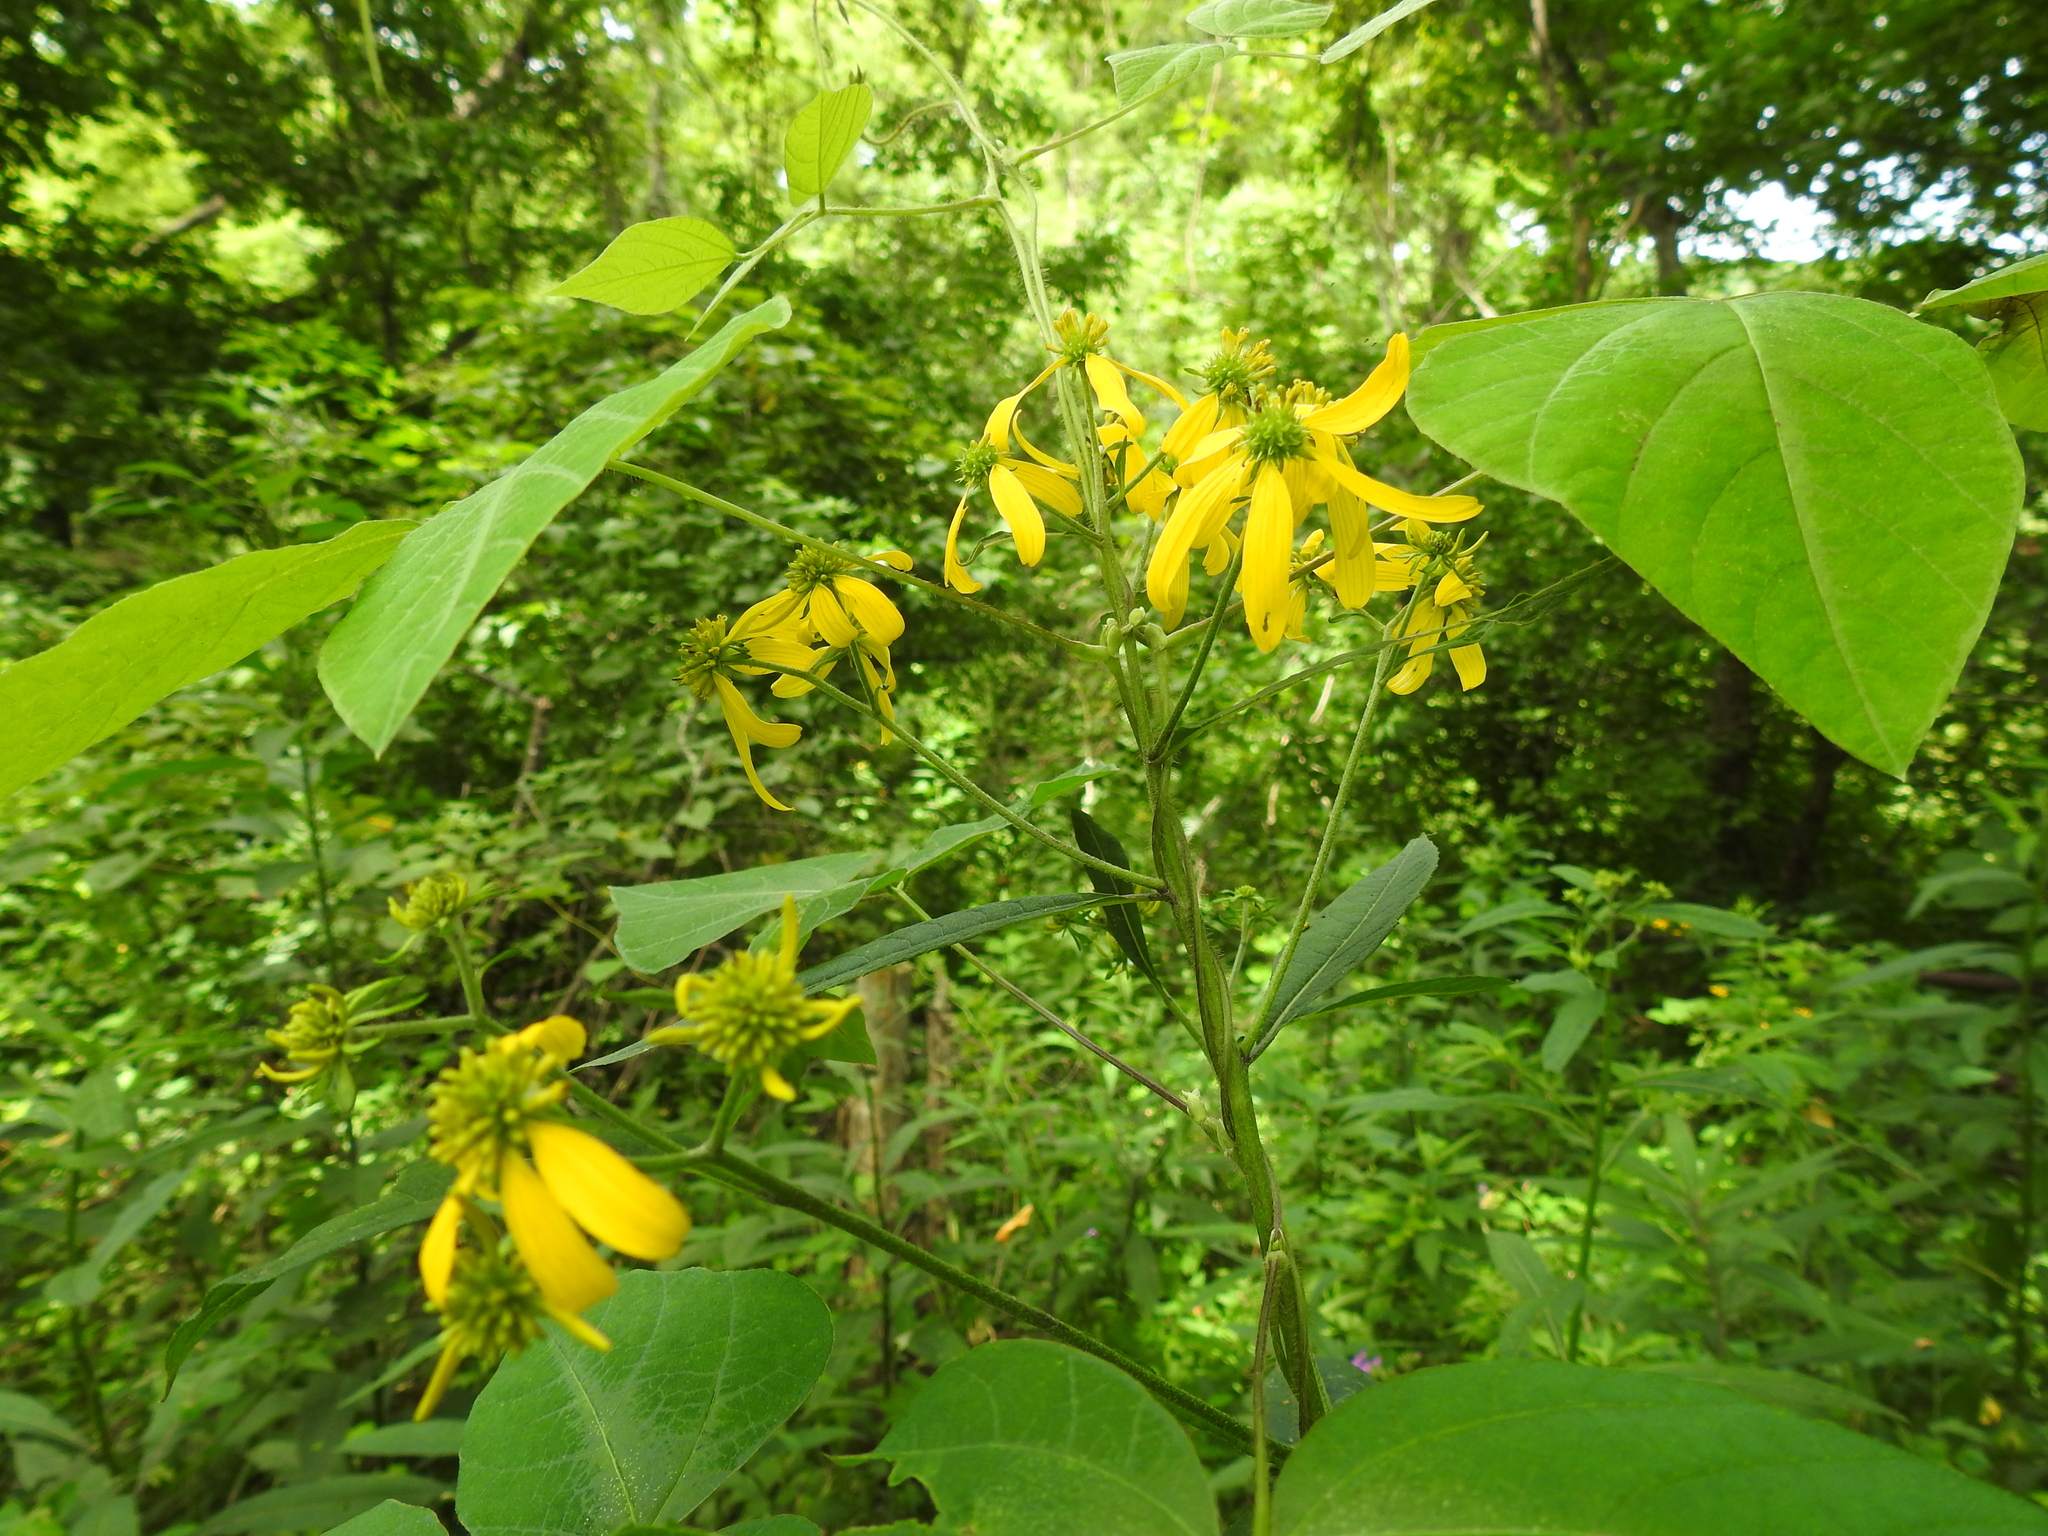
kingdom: Plantae
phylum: Tracheophyta
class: Magnoliopsida
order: Asterales
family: Asteraceae
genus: Verbesina
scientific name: Verbesina alternifolia
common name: Wingstem
